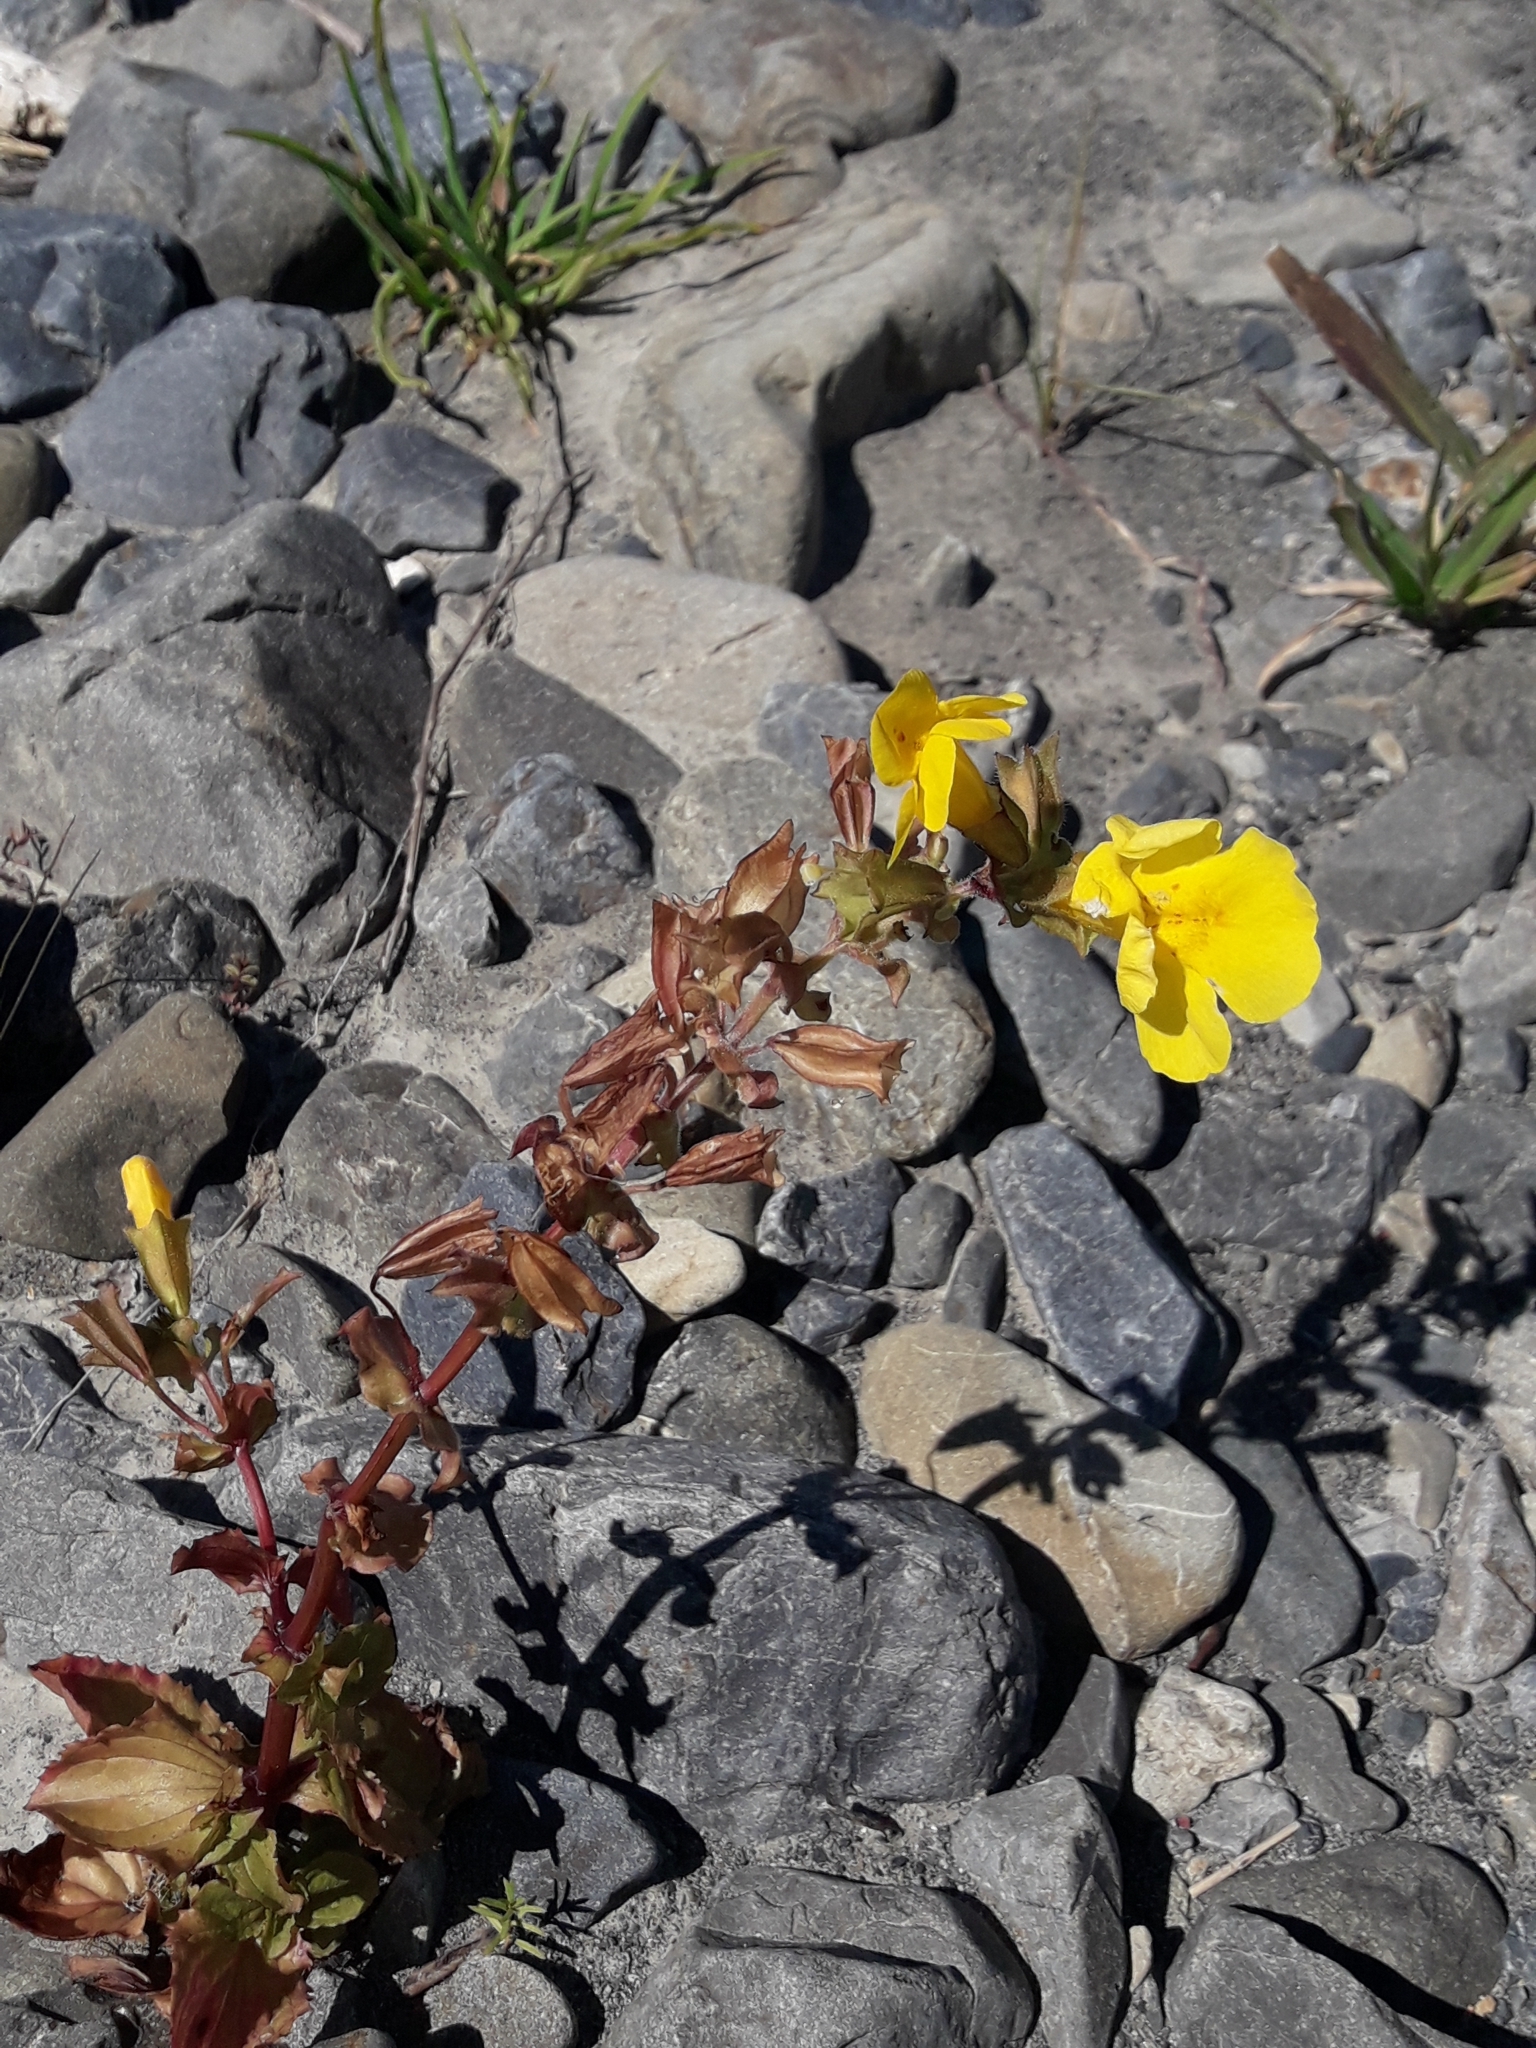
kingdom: Plantae
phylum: Tracheophyta
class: Magnoliopsida
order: Lamiales
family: Phrymaceae
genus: Erythranthe
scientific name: Erythranthe guttata
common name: Monkeyflower
